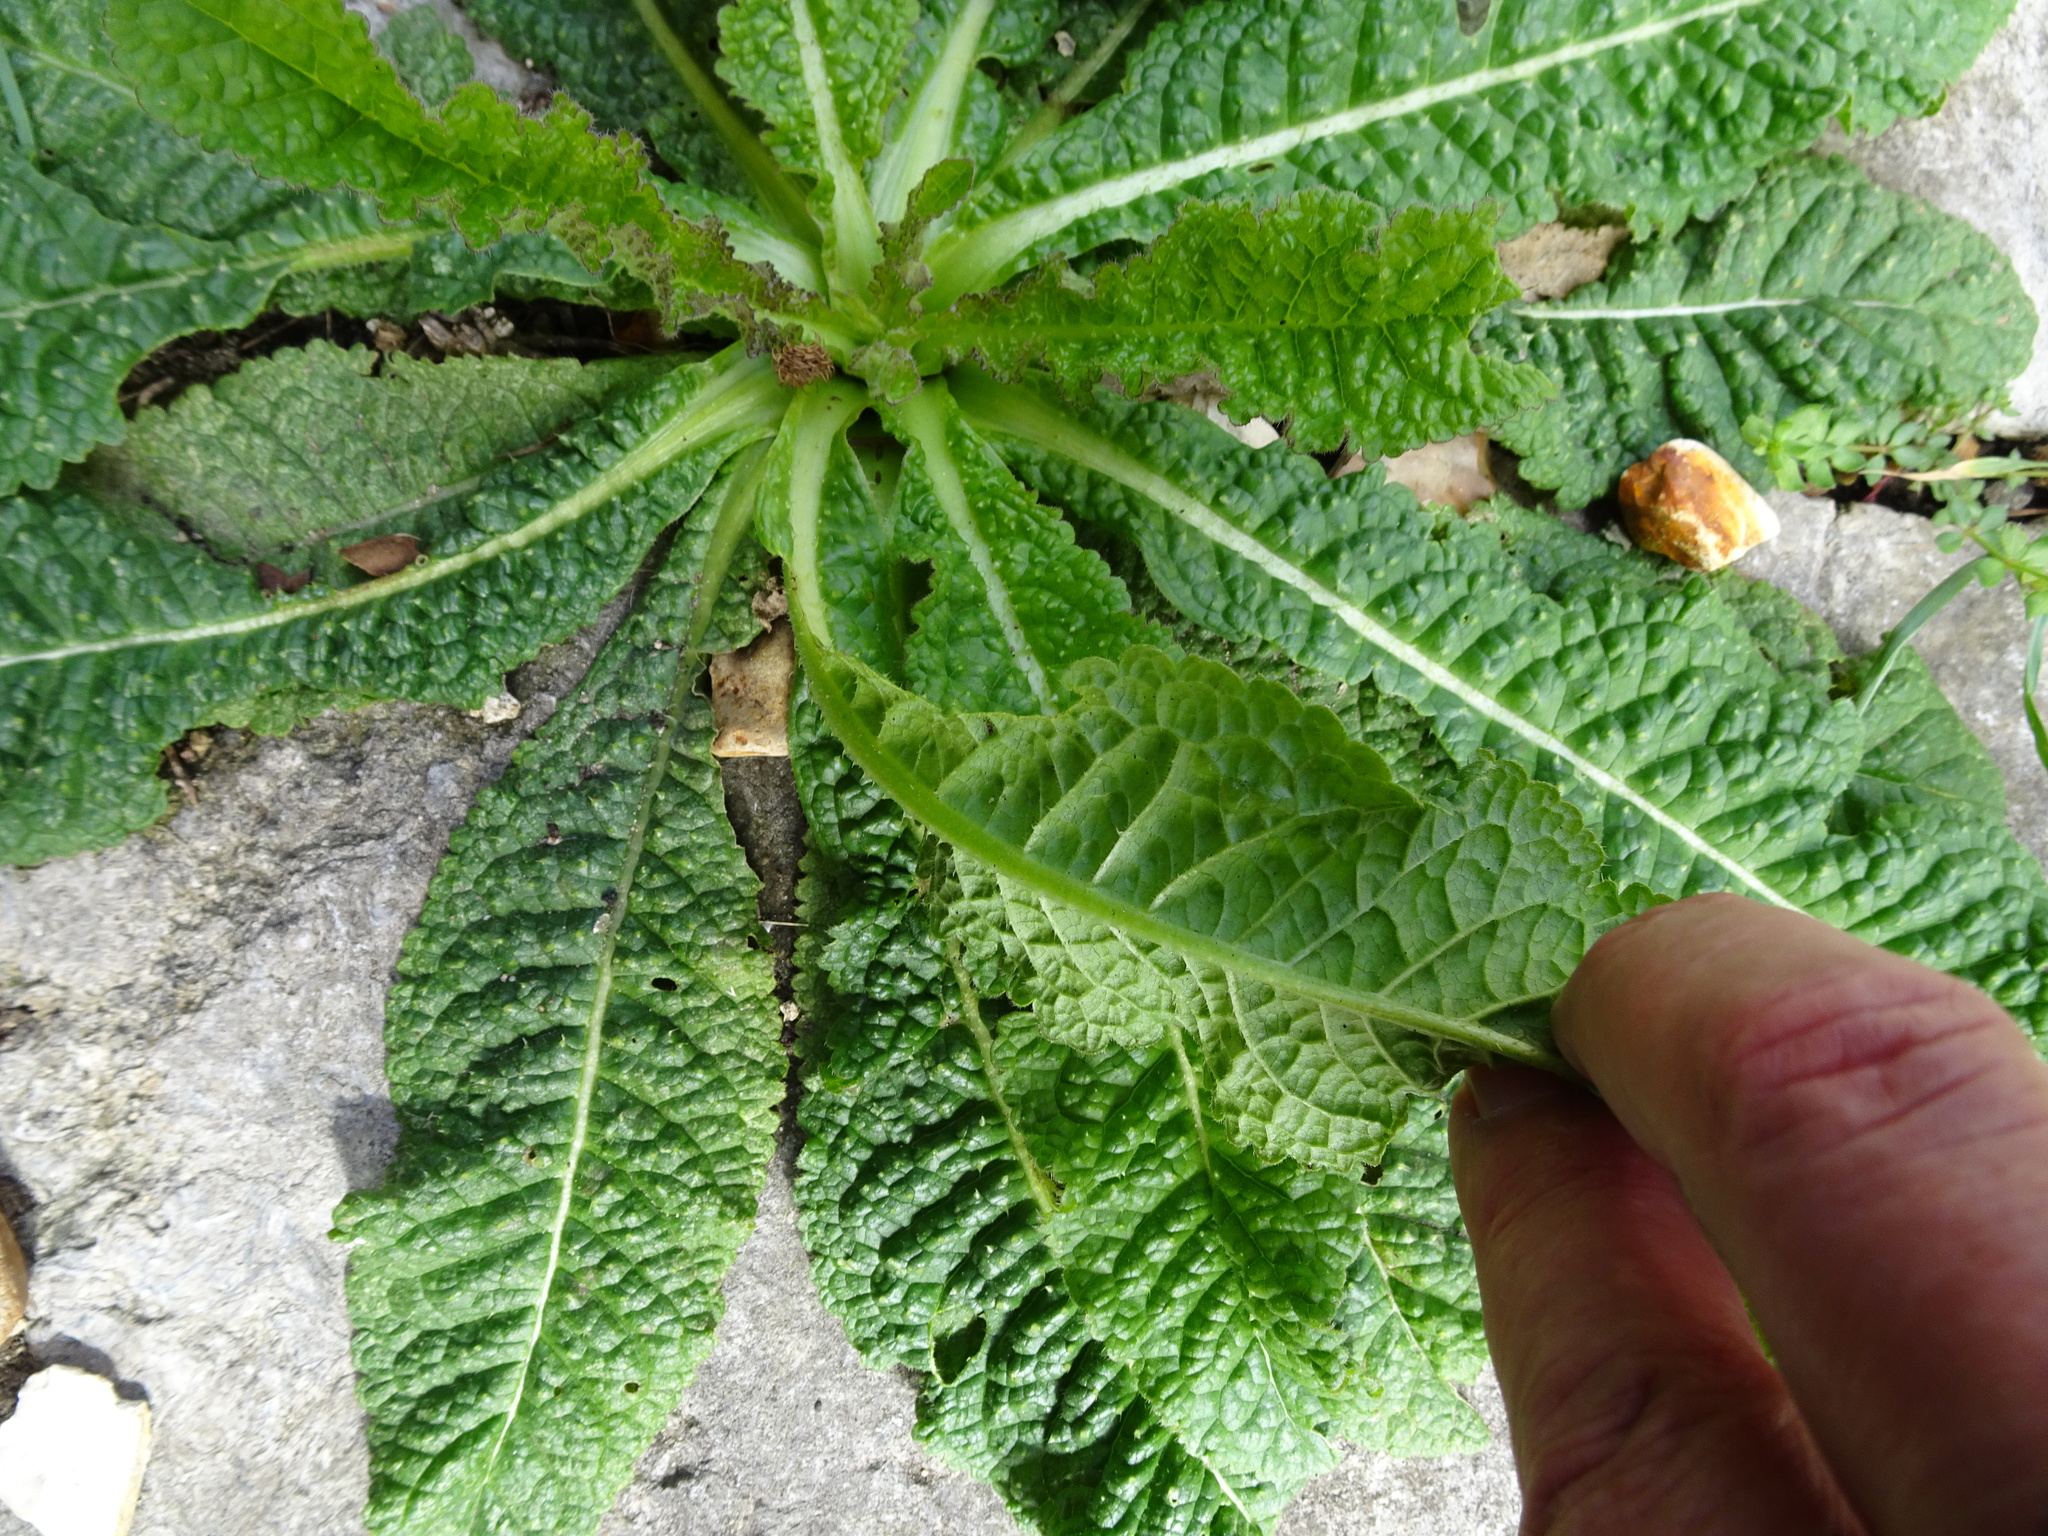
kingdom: Plantae
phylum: Tracheophyta
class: Magnoliopsida
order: Dipsacales
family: Caprifoliaceae
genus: Dipsacus
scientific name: Dipsacus fullonum
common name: Teasel
